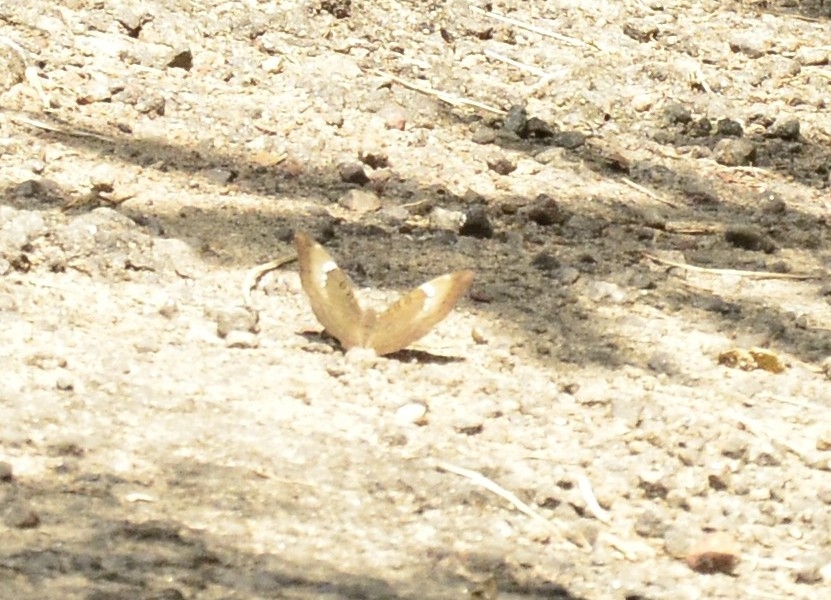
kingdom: Animalia
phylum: Arthropoda
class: Insecta
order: Lepidoptera
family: Nymphalidae
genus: Euthalia
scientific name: Euthalia aconthea
